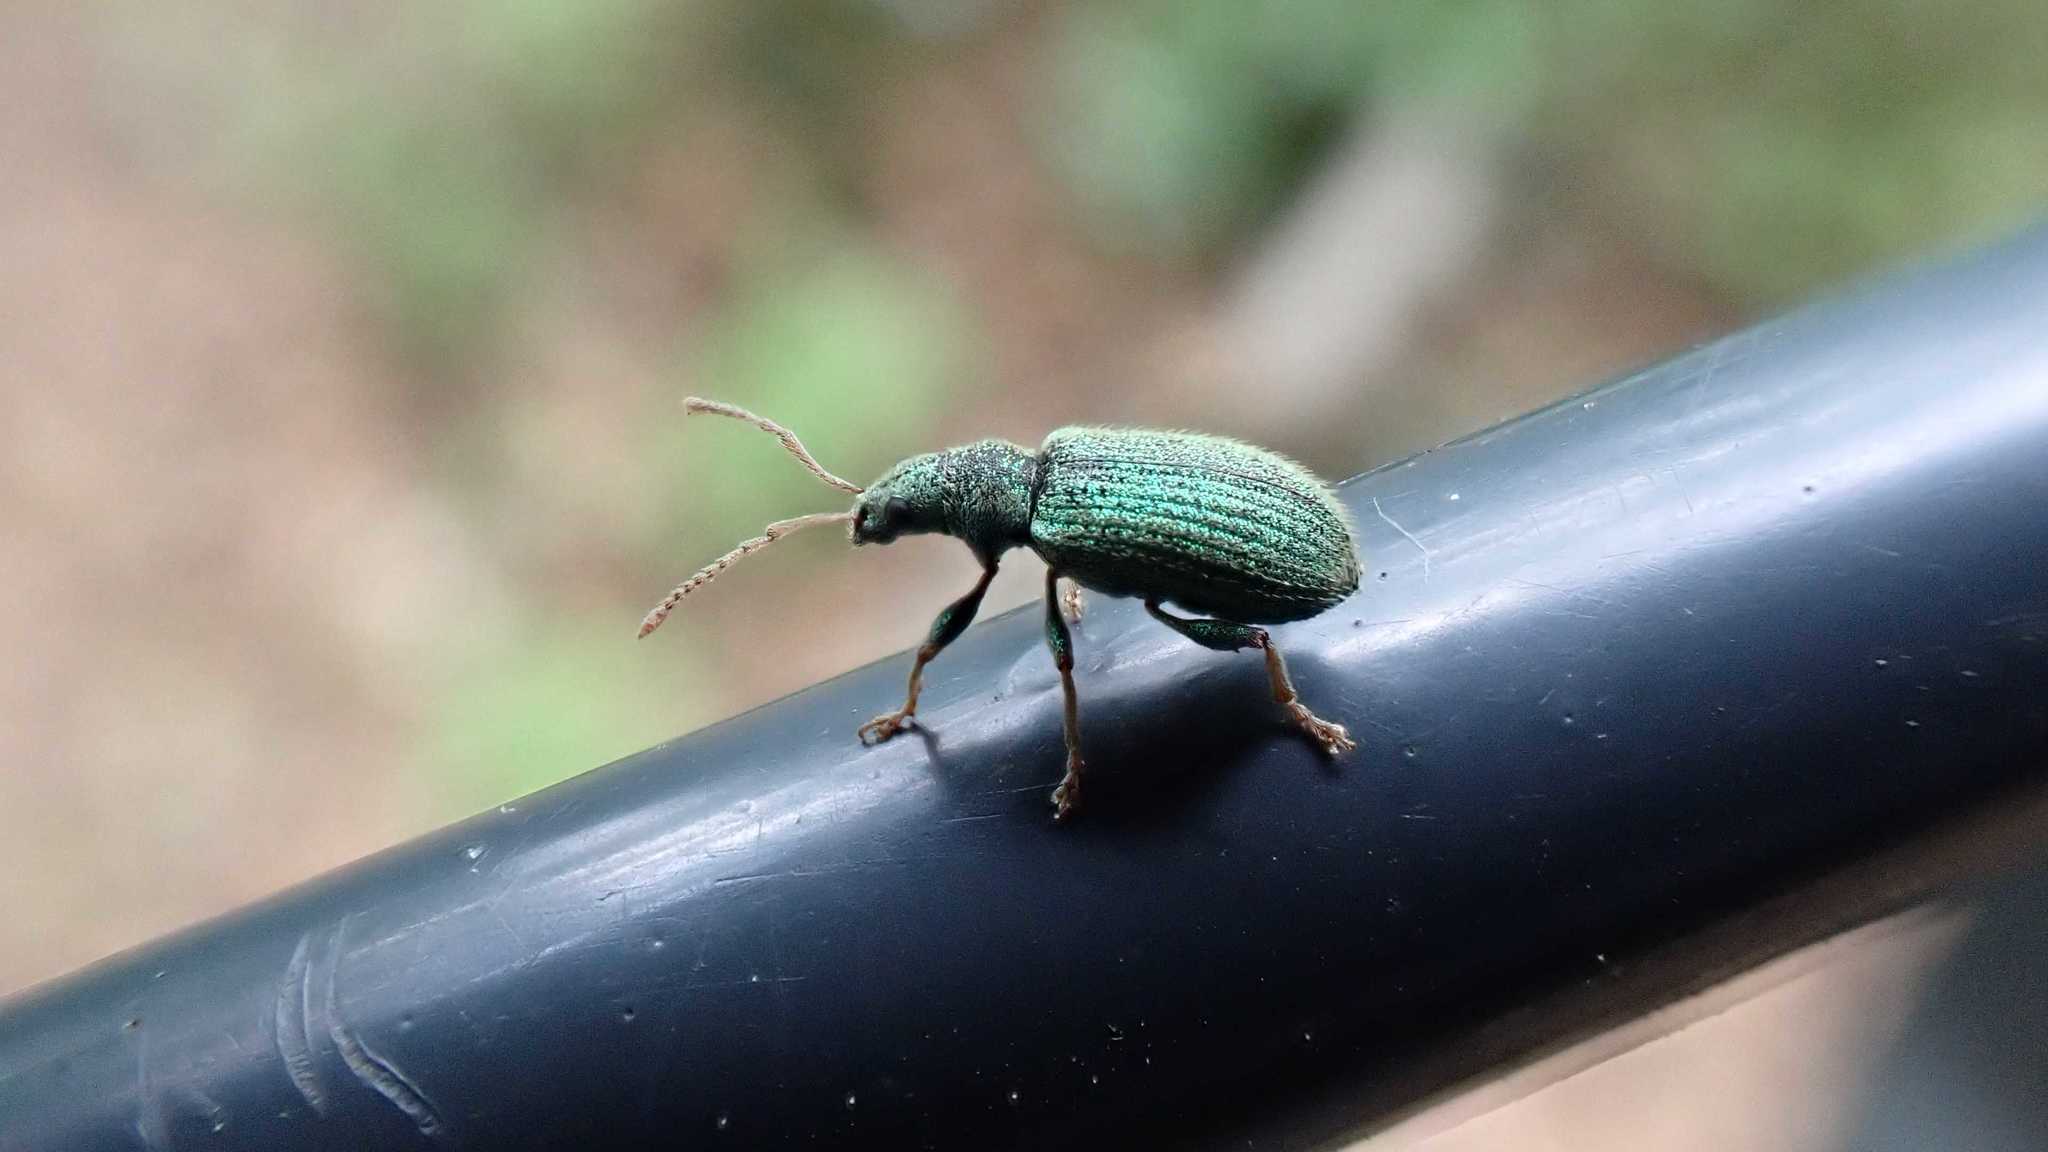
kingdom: Animalia
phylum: Arthropoda
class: Insecta
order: Coleoptera
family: Curculionidae
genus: Phyllobius
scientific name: Phyllobius argentatus
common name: Silver-green leaf weevil
